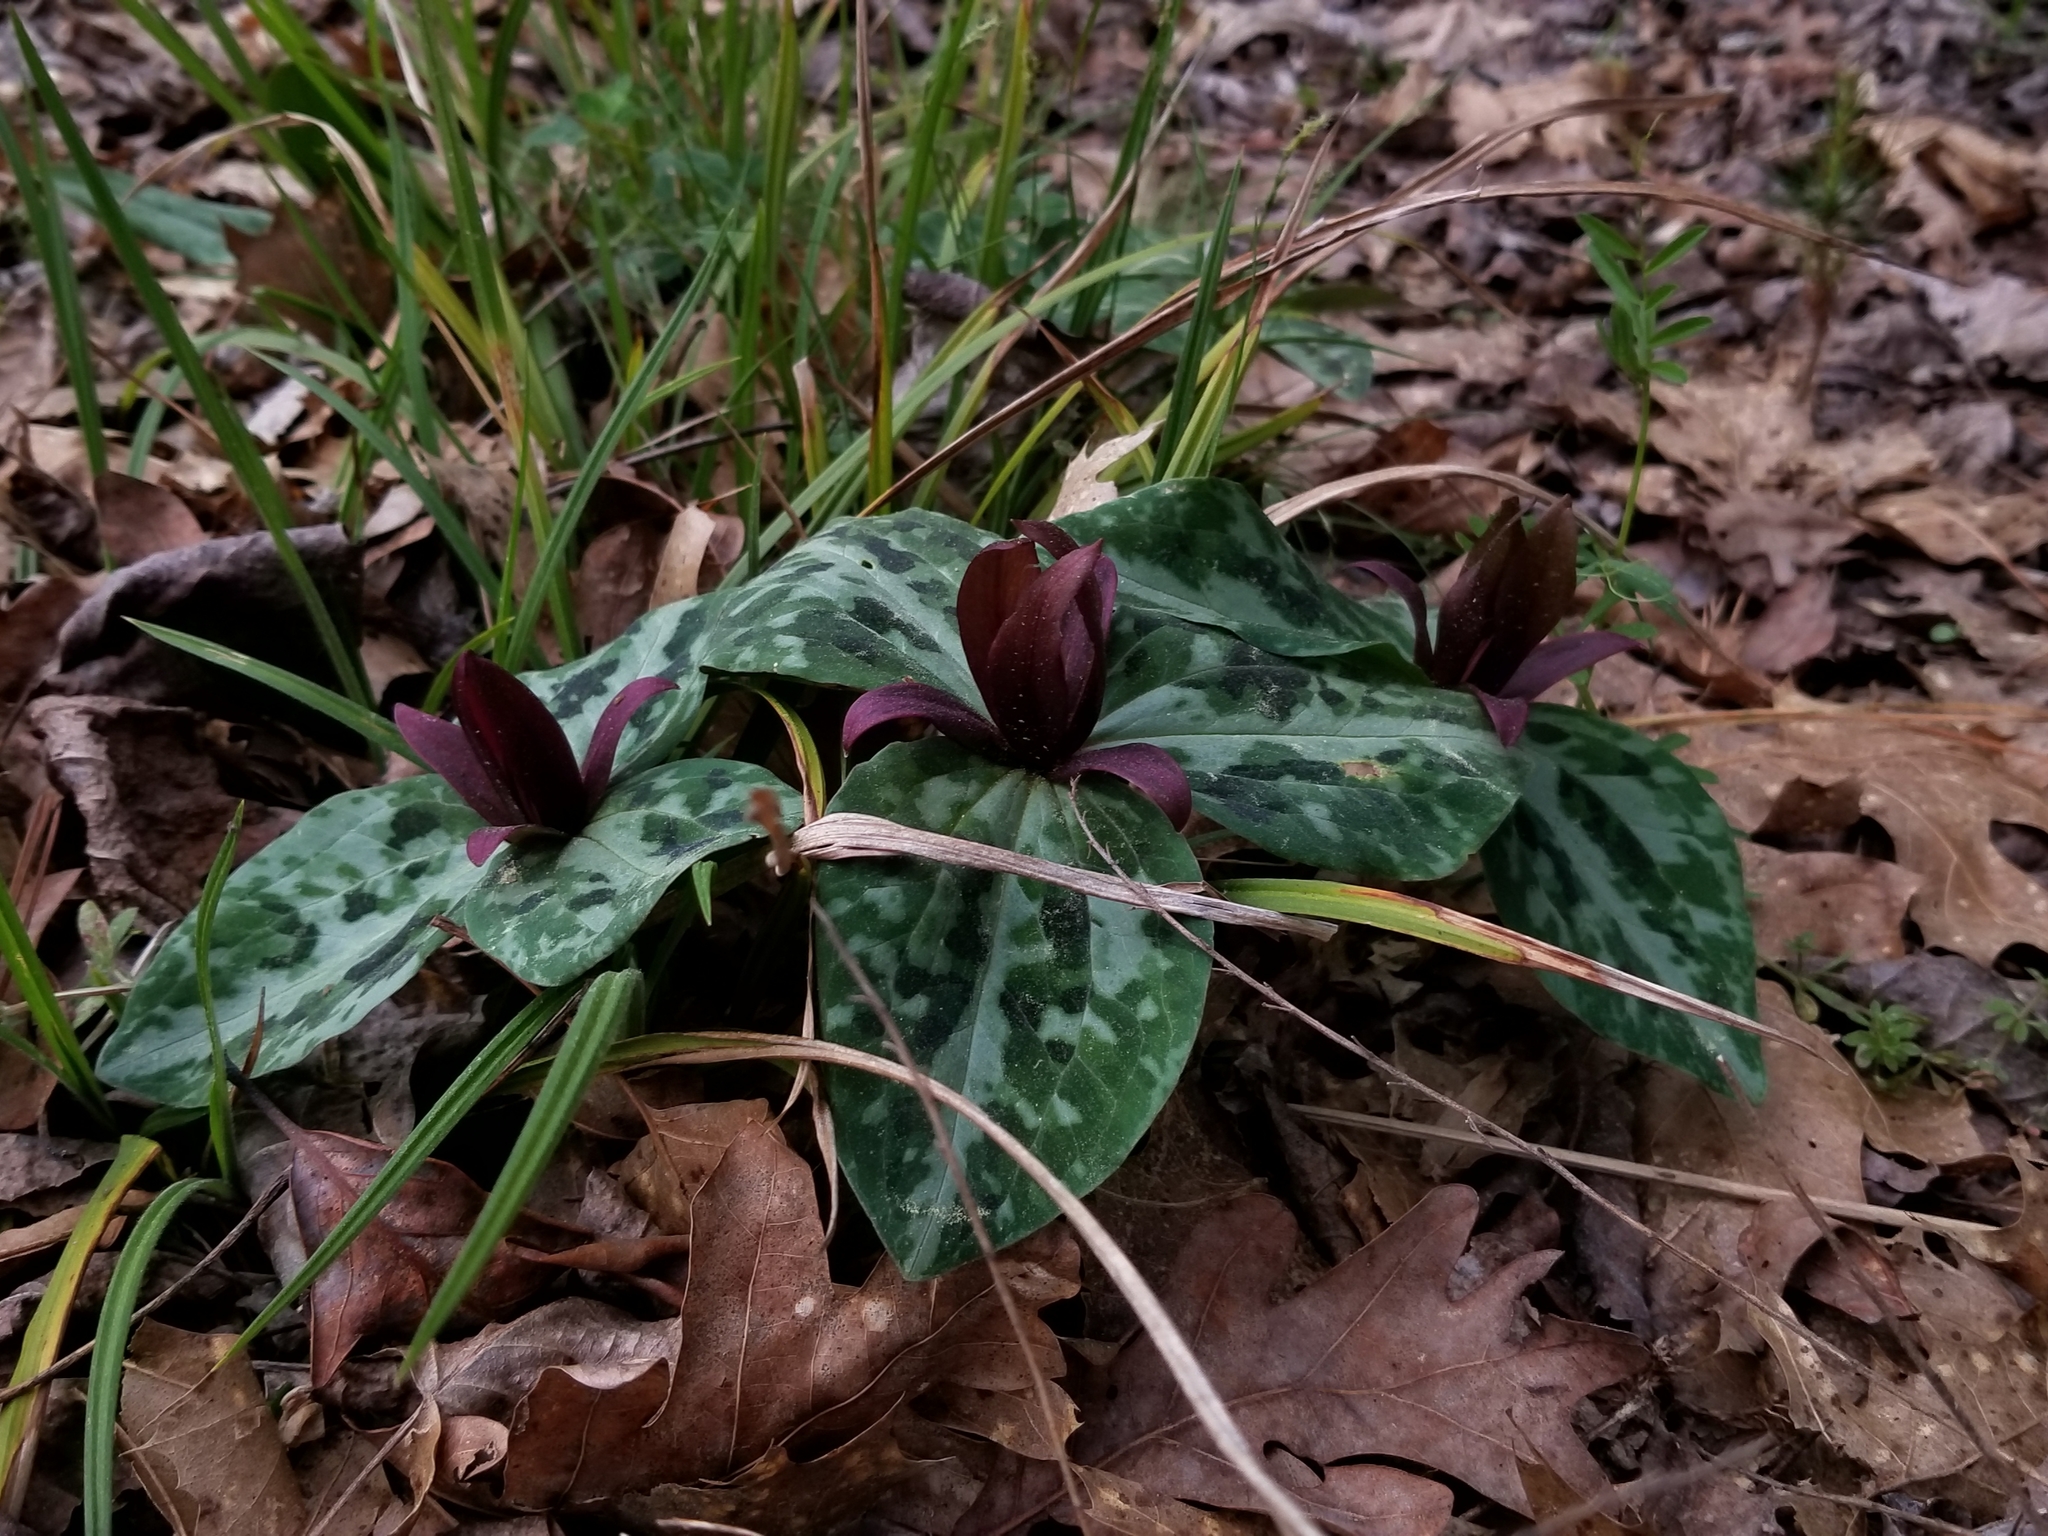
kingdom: Plantae
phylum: Tracheophyta
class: Liliopsida
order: Liliales
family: Melanthiaceae
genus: Trillium
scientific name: Trillium reliquum
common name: Relict trillium
